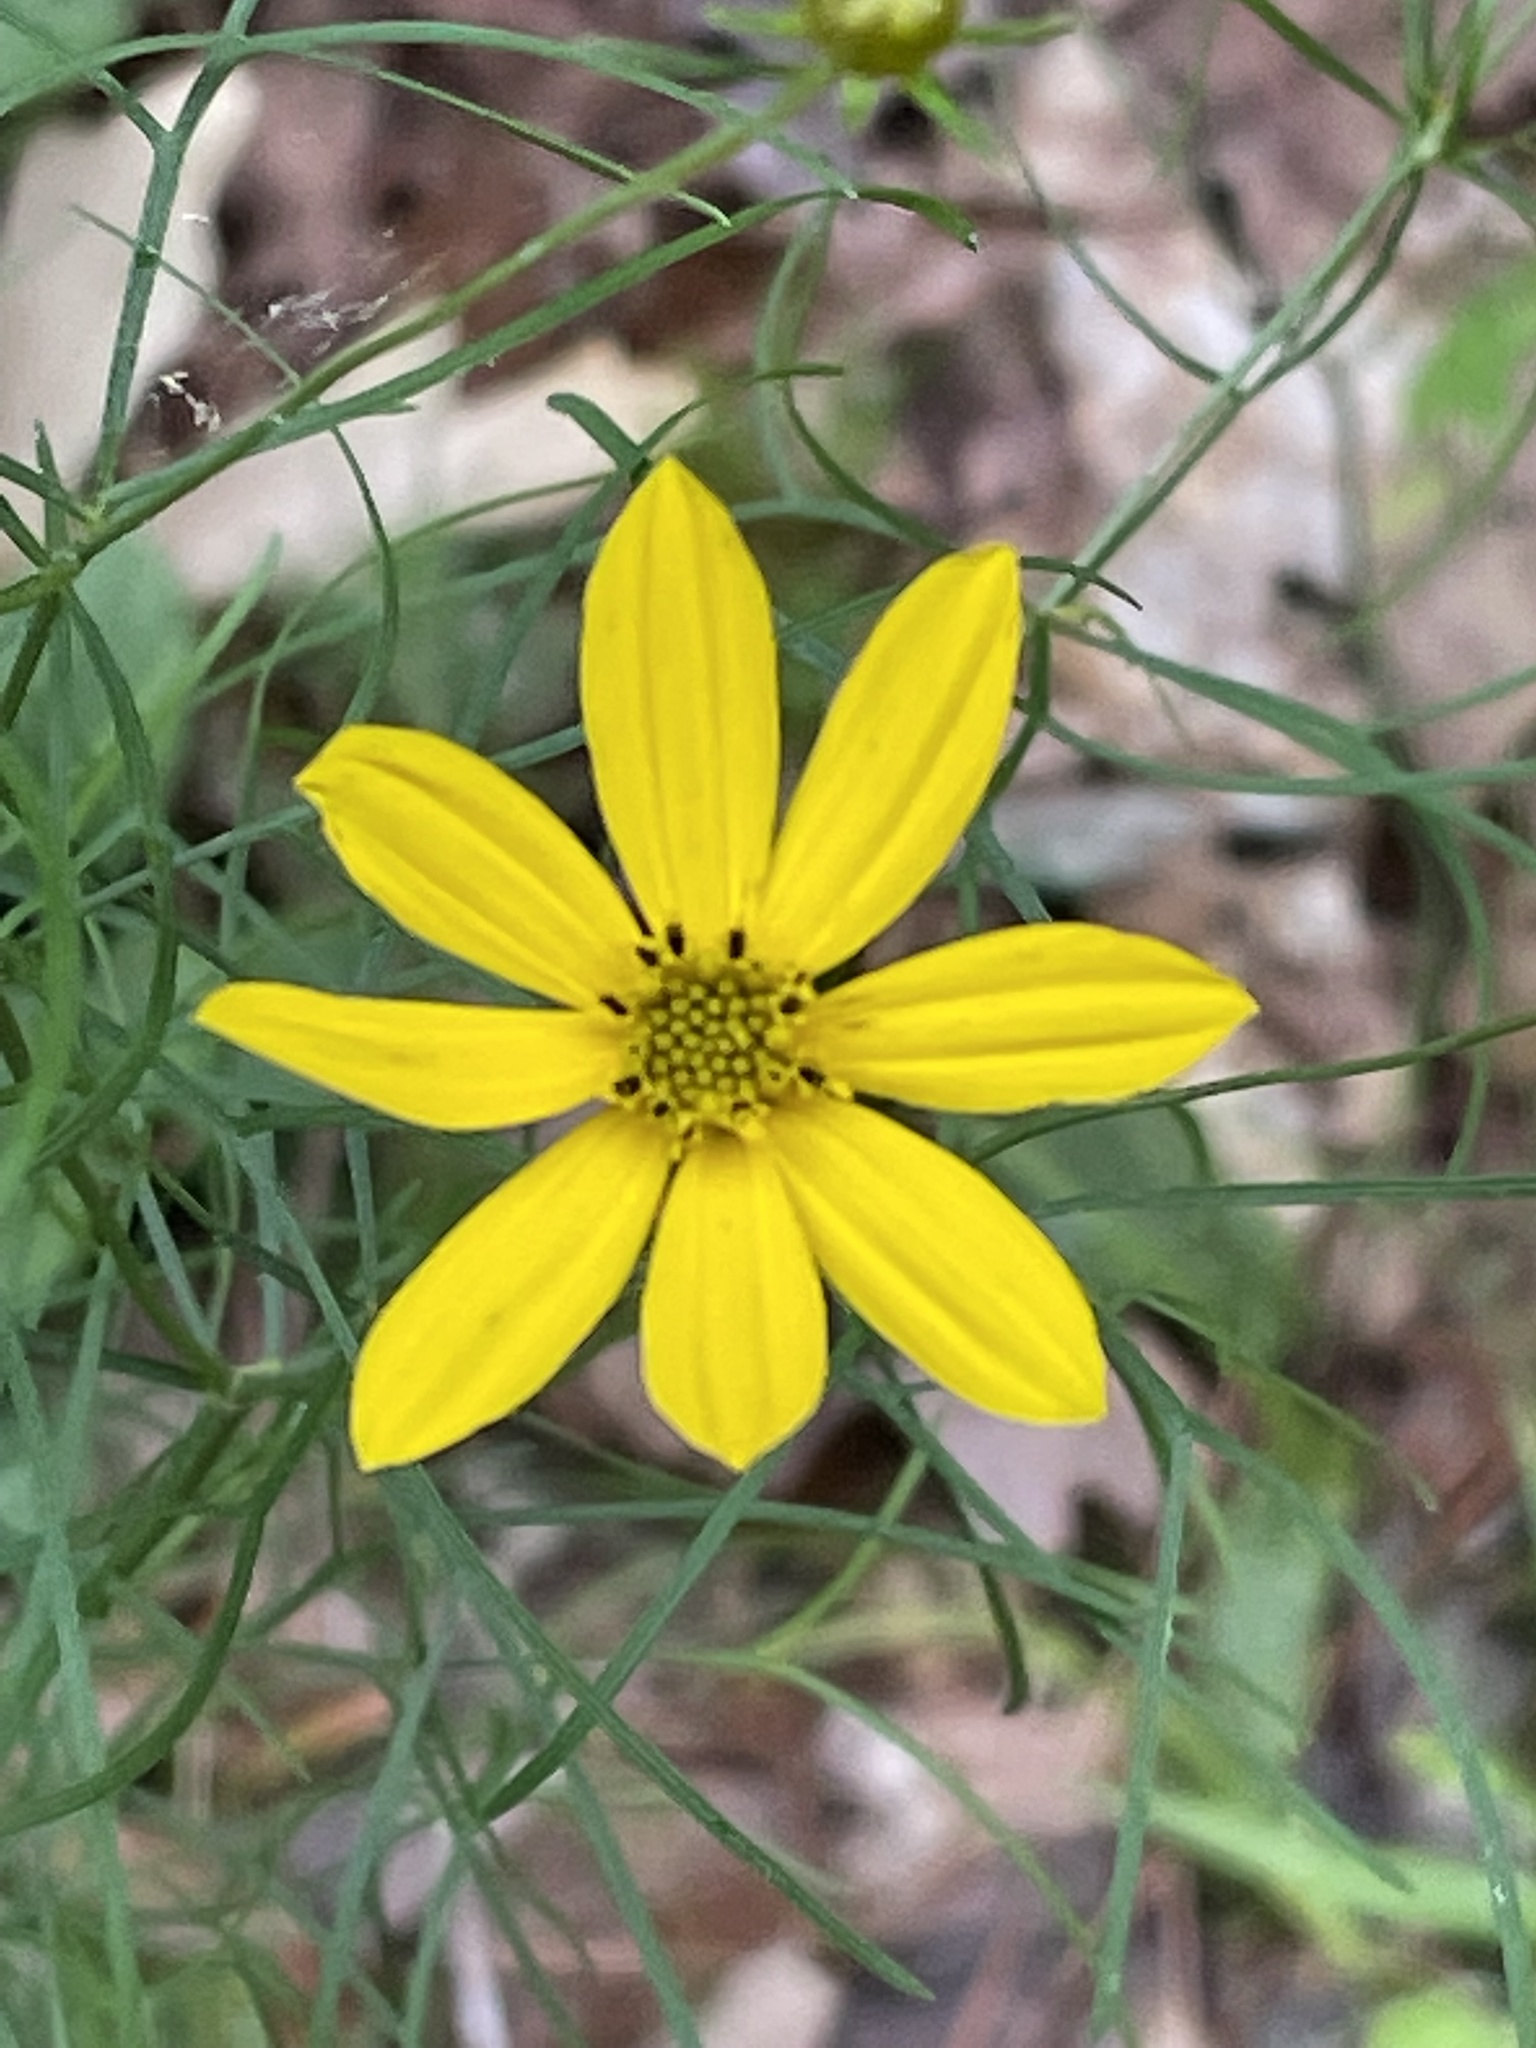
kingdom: Plantae
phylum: Tracheophyta
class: Magnoliopsida
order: Asterales
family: Asteraceae
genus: Coreopsis
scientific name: Coreopsis verticillata
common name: Whorled tickseed
